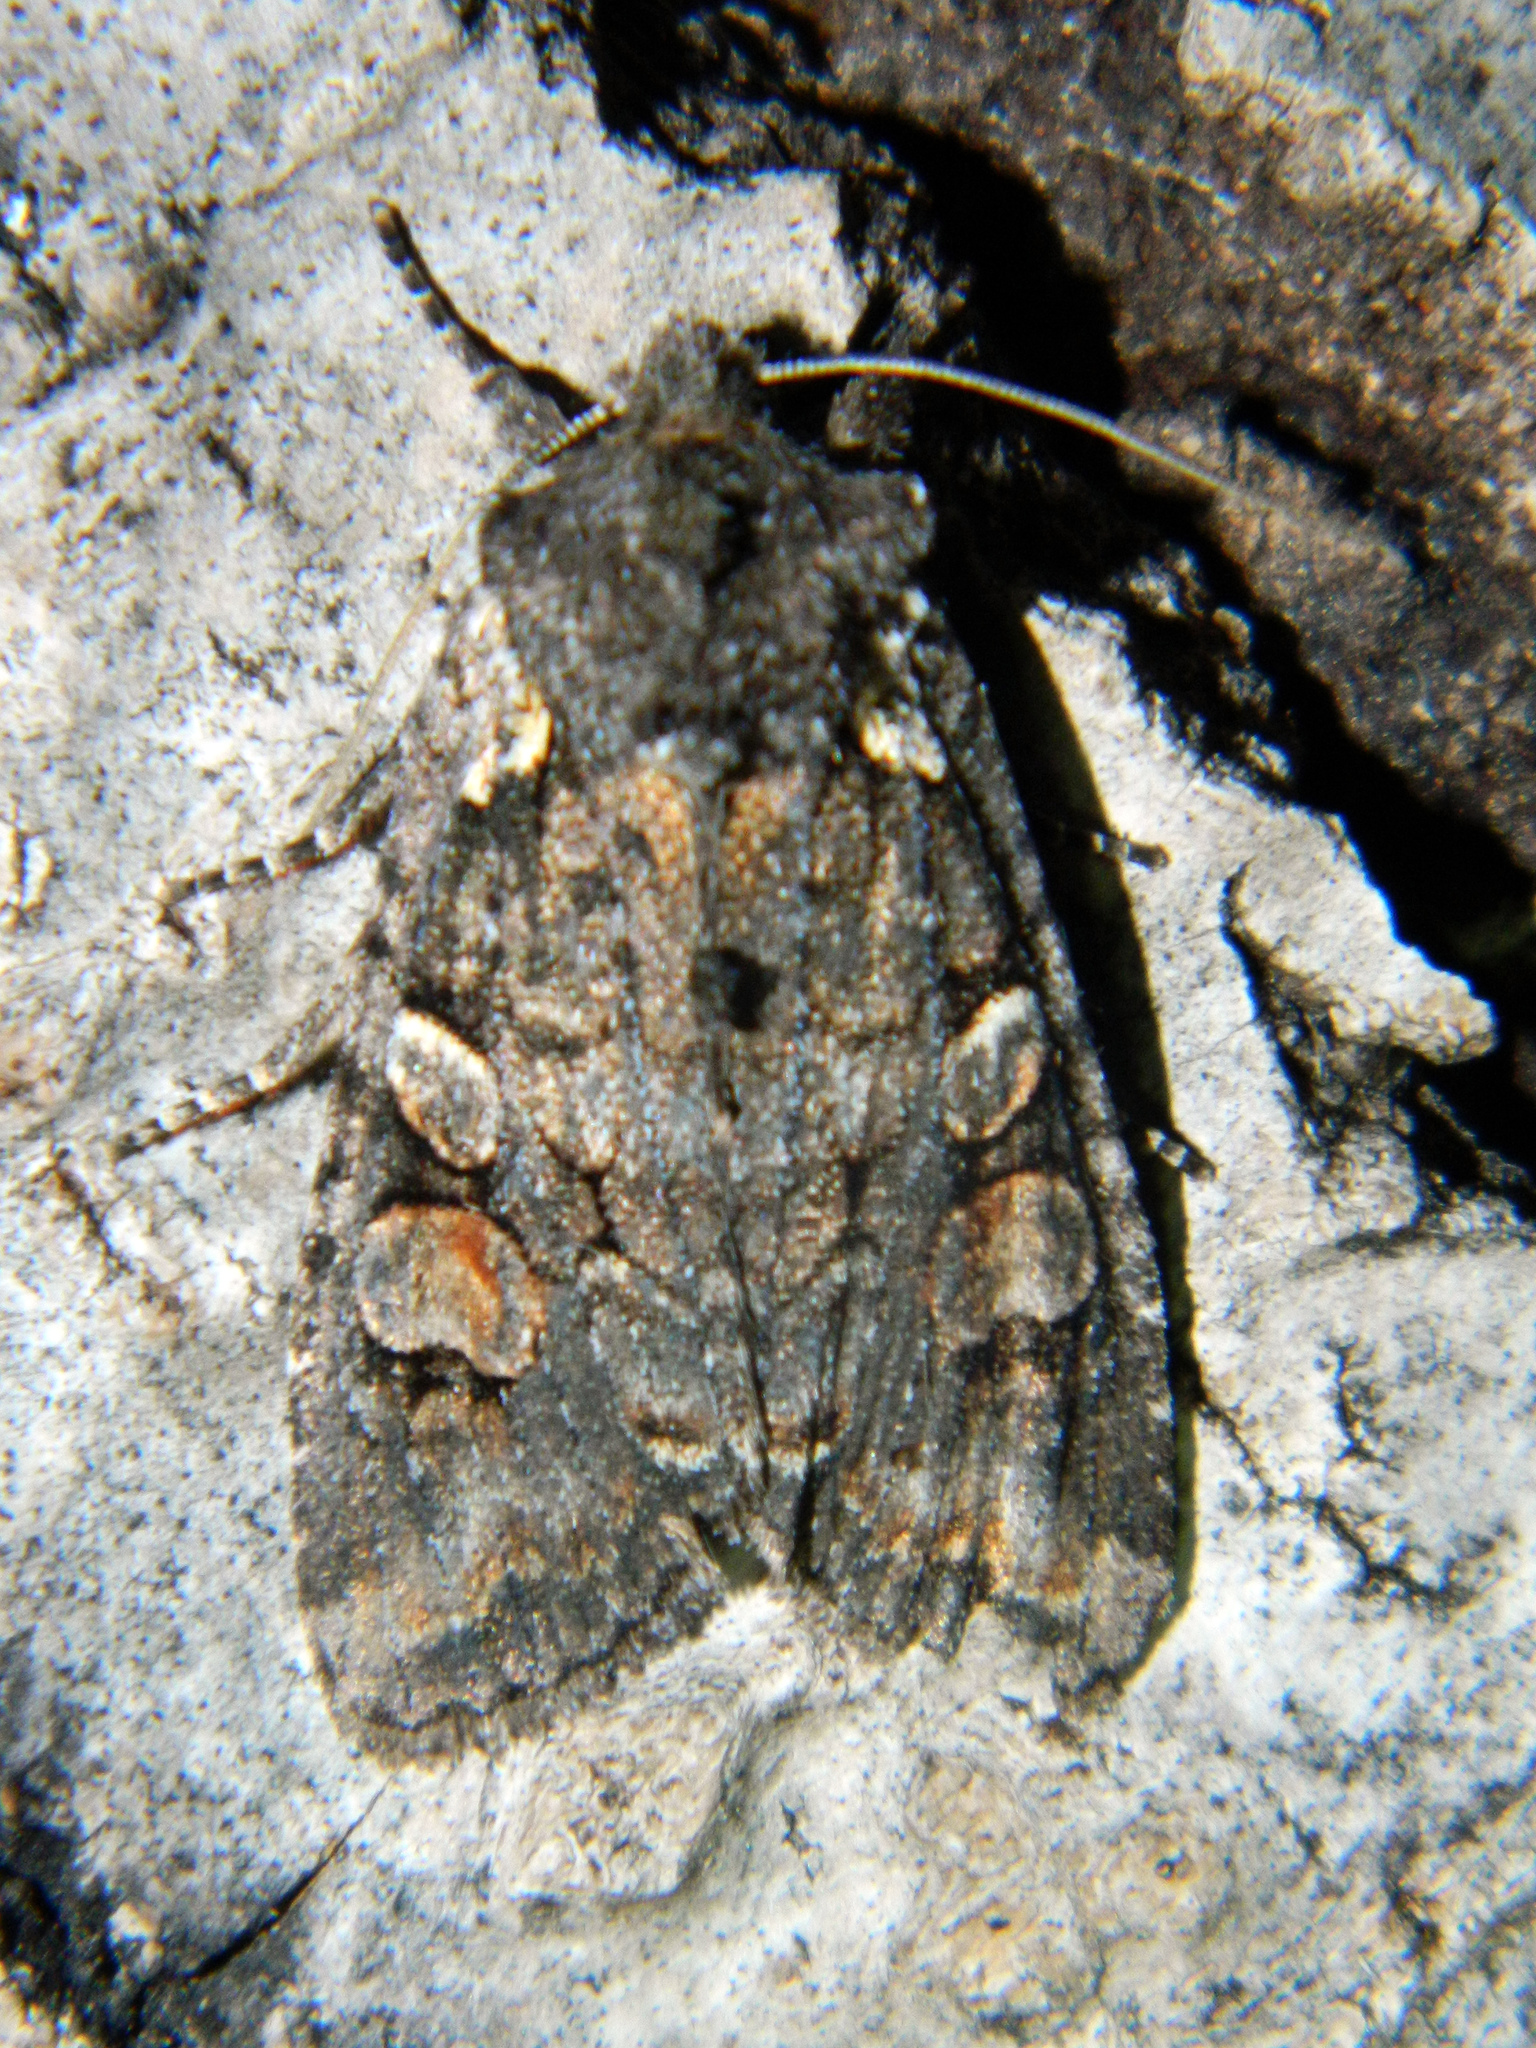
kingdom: Animalia
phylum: Arthropoda
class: Insecta
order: Lepidoptera
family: Noctuidae
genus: Lithophane
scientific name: Lithophane pexata
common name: Plush-naped pinion moth
